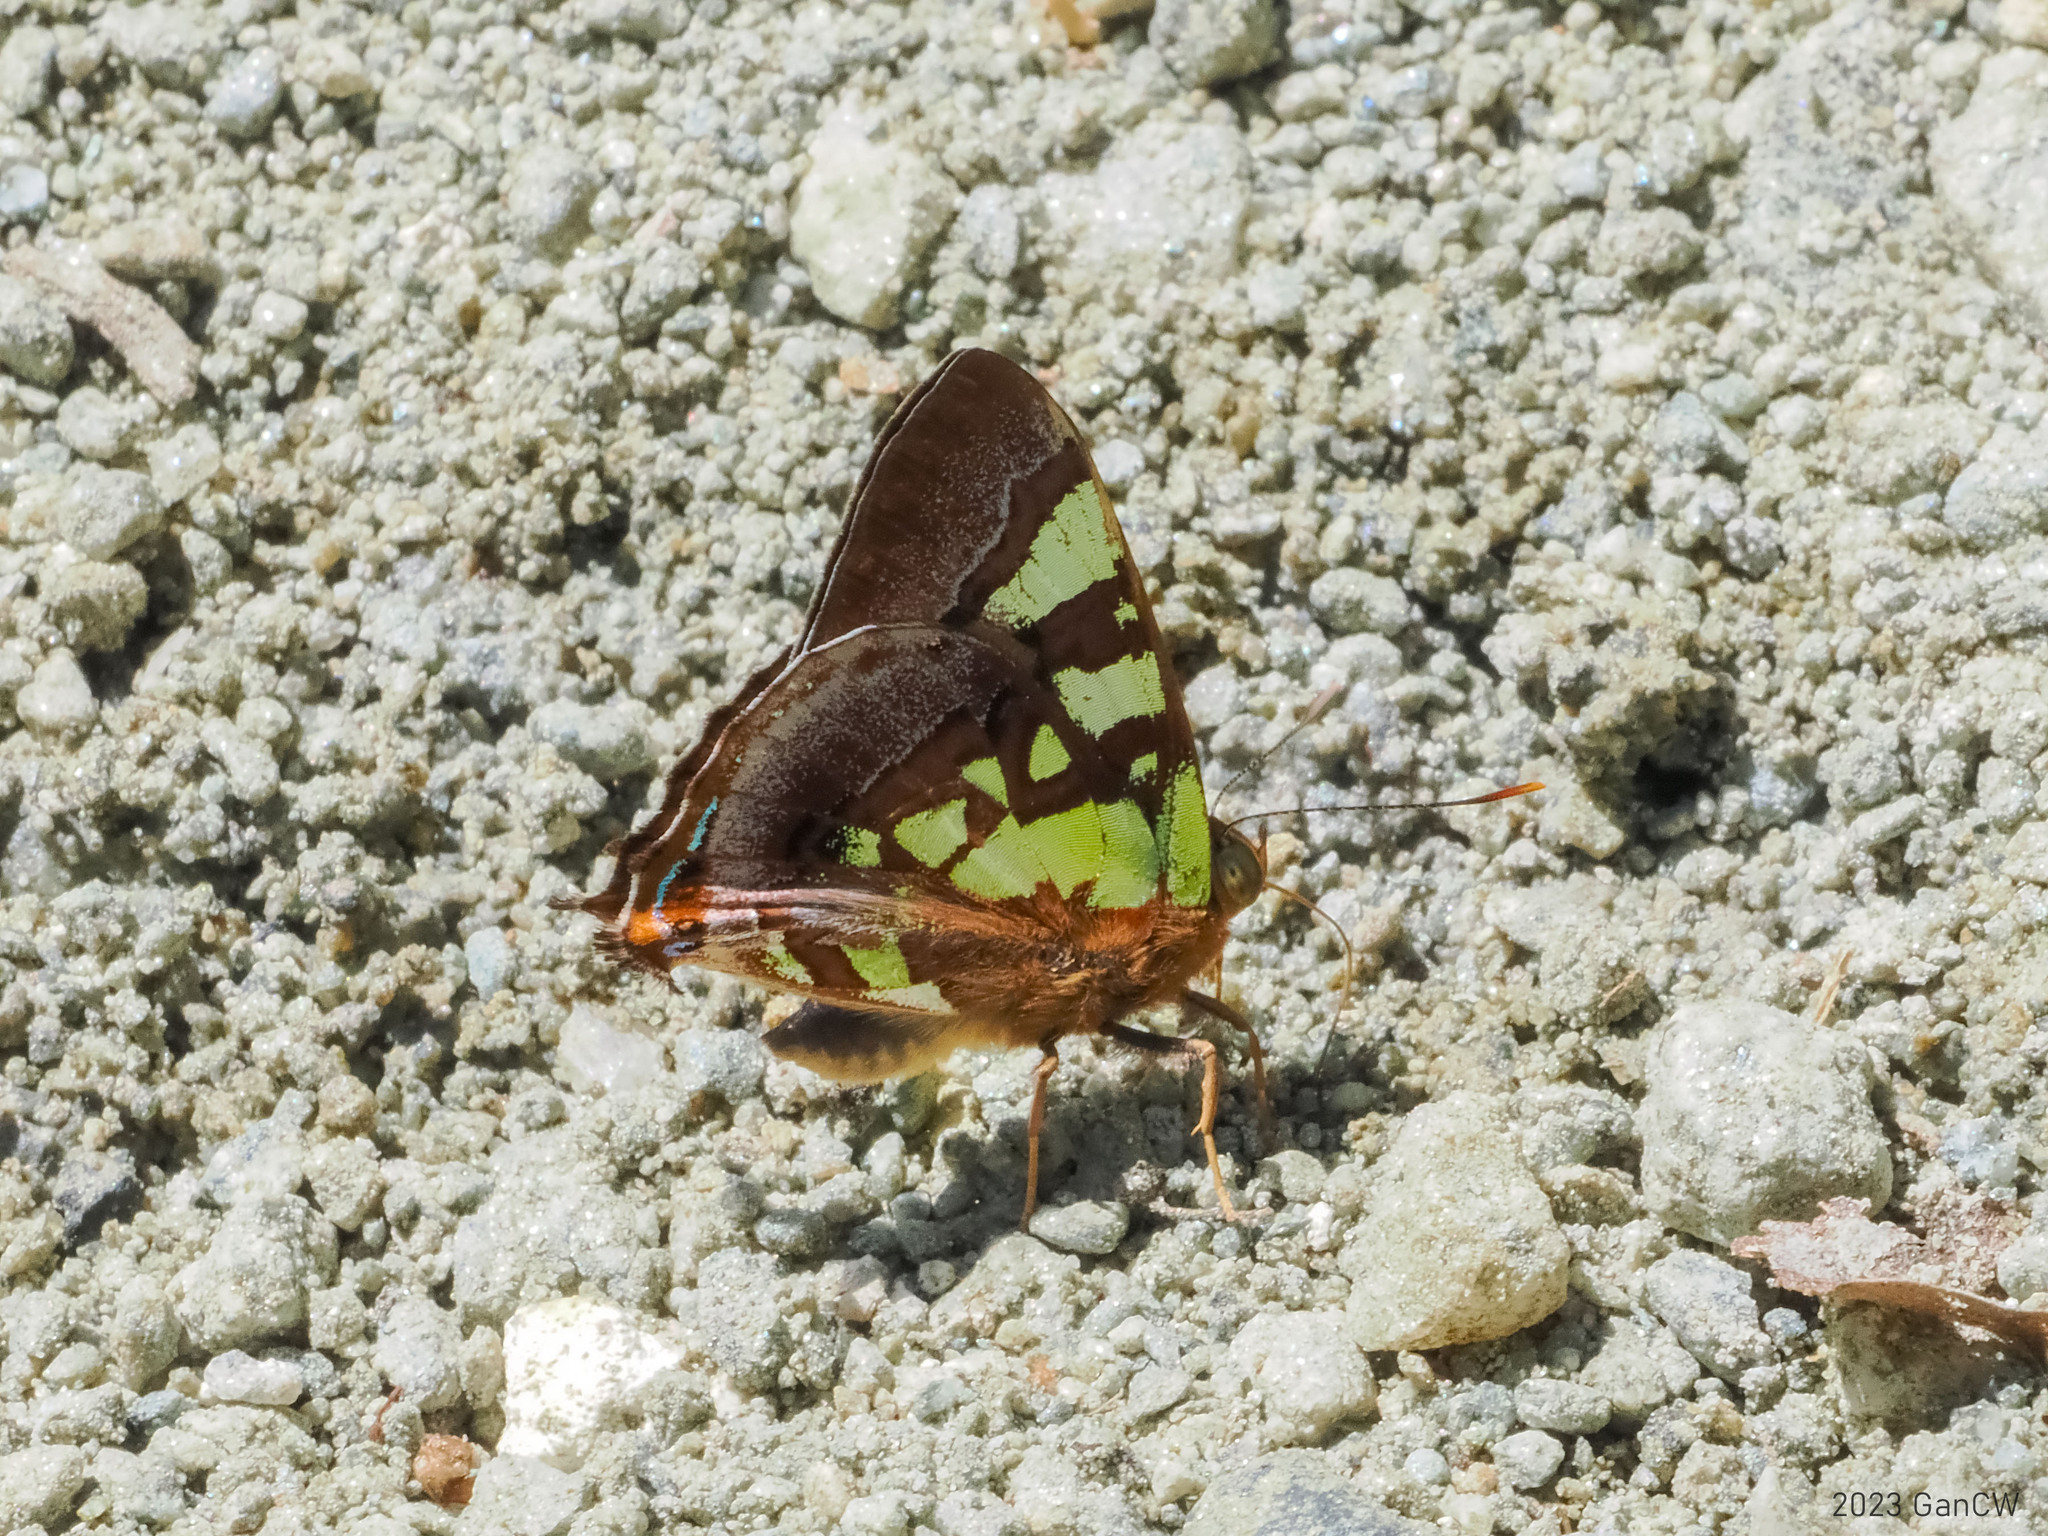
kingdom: Animalia
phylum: Arthropoda
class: Insecta
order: Lepidoptera
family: Lycaenidae
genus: Hypochrysops
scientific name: Hypochrysops chrysargyra
